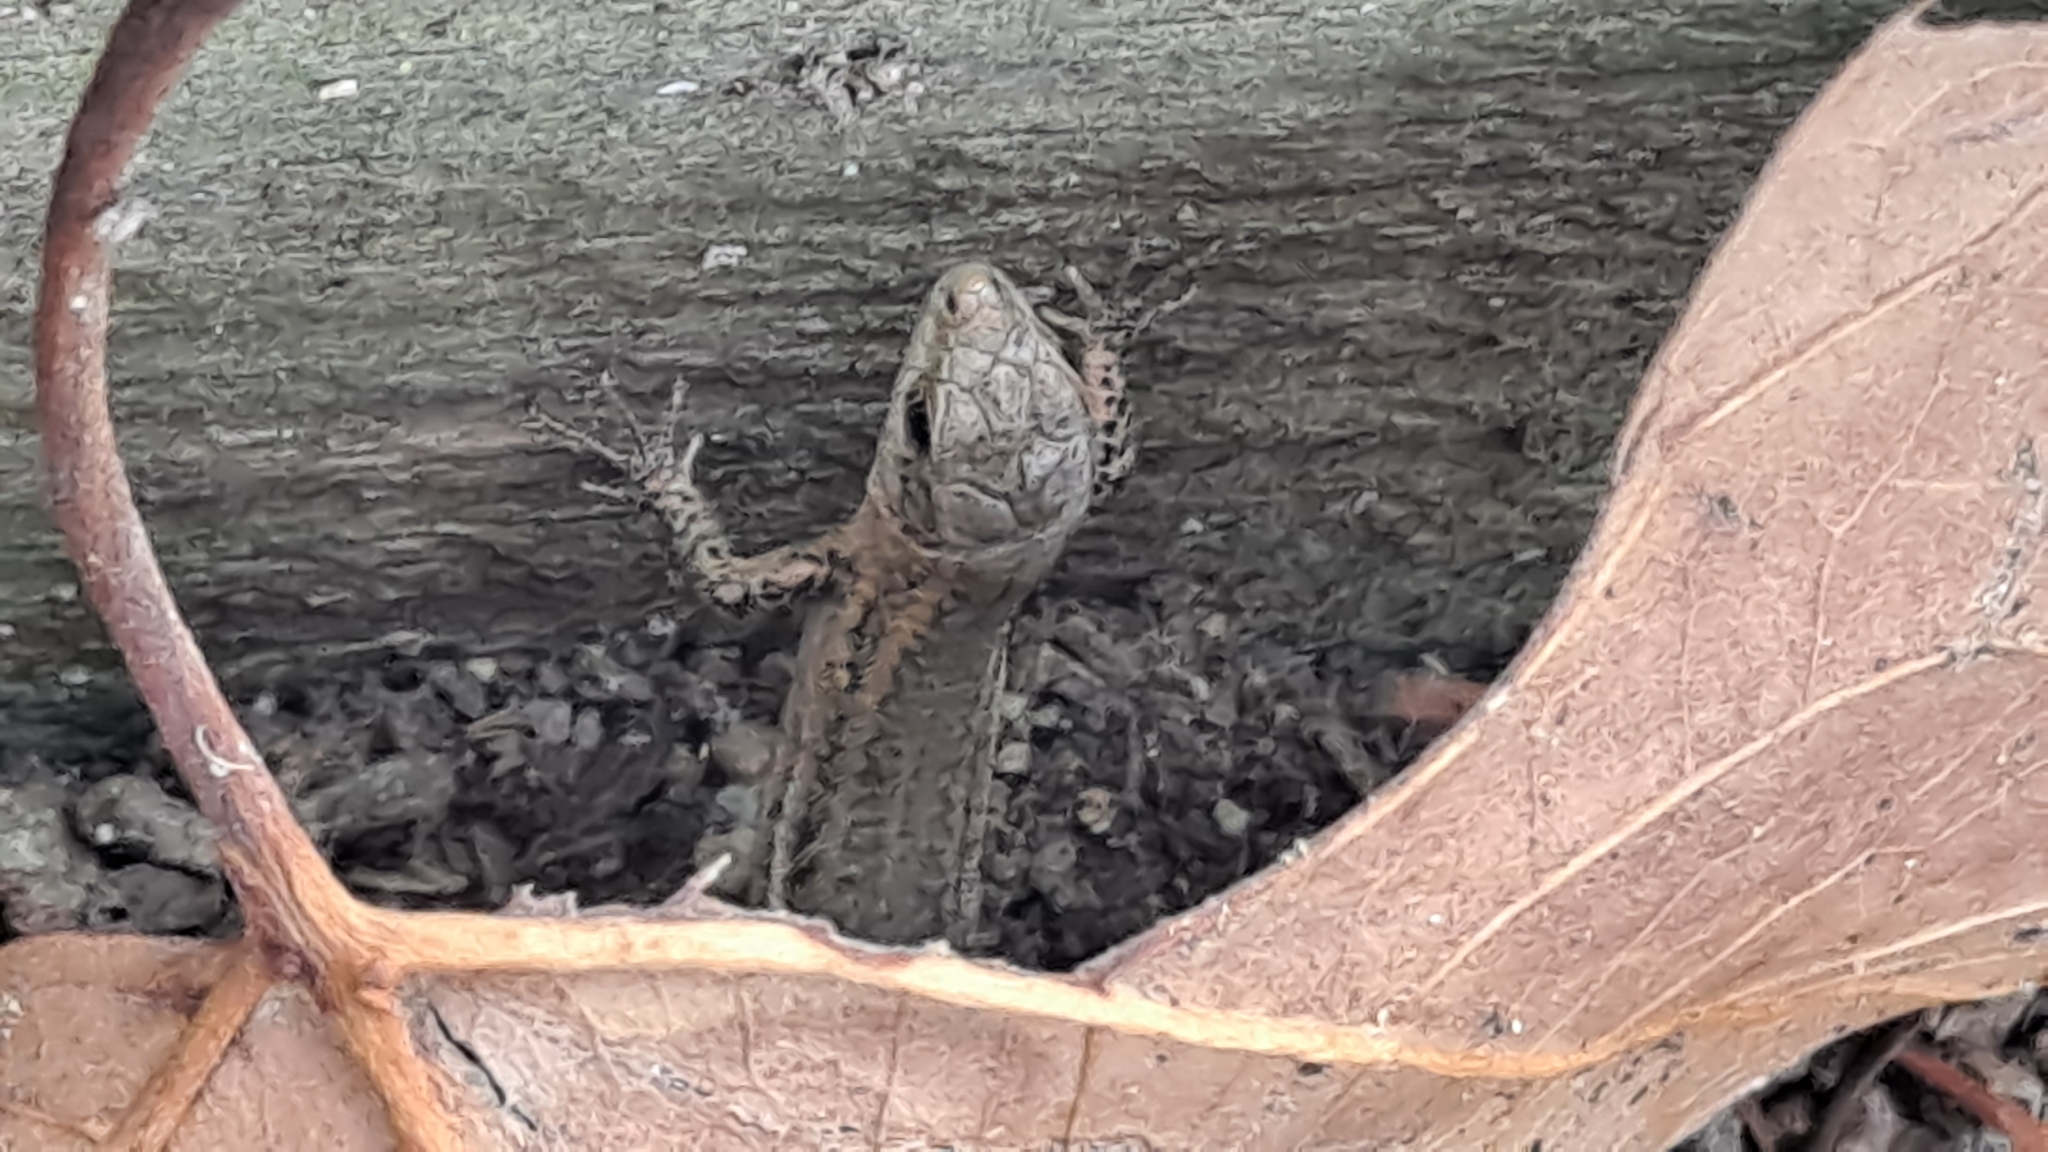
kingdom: Animalia
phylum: Chordata
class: Squamata
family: Lacertidae
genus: Podarcis
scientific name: Podarcis liolepis
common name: Catalonian wall lizard
